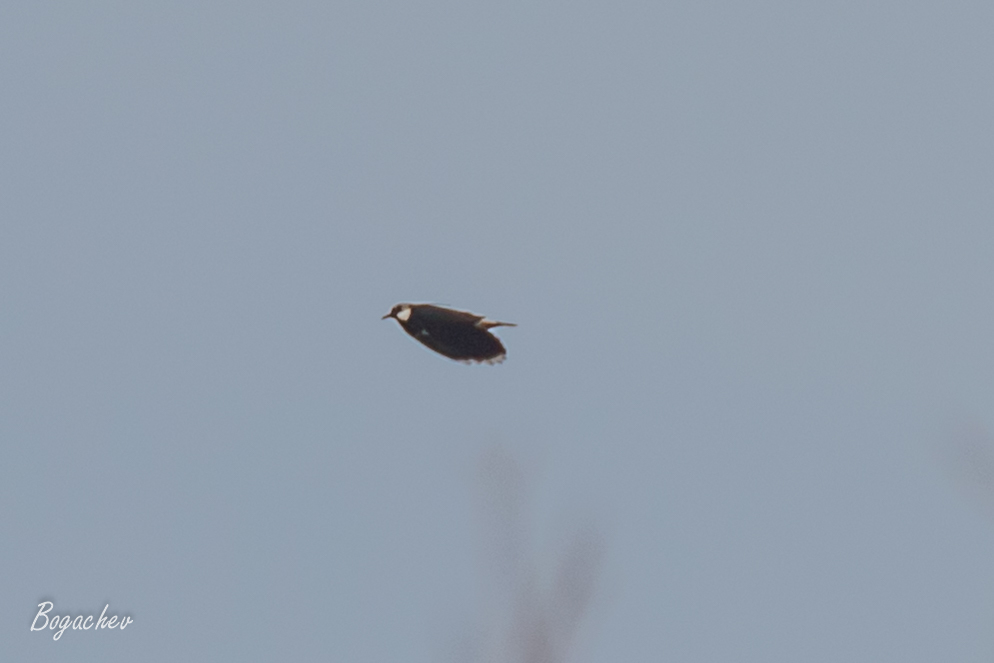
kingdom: Animalia
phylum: Chordata
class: Aves
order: Charadriiformes
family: Charadriidae
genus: Vanellus
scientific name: Vanellus vanellus
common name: Northern lapwing
